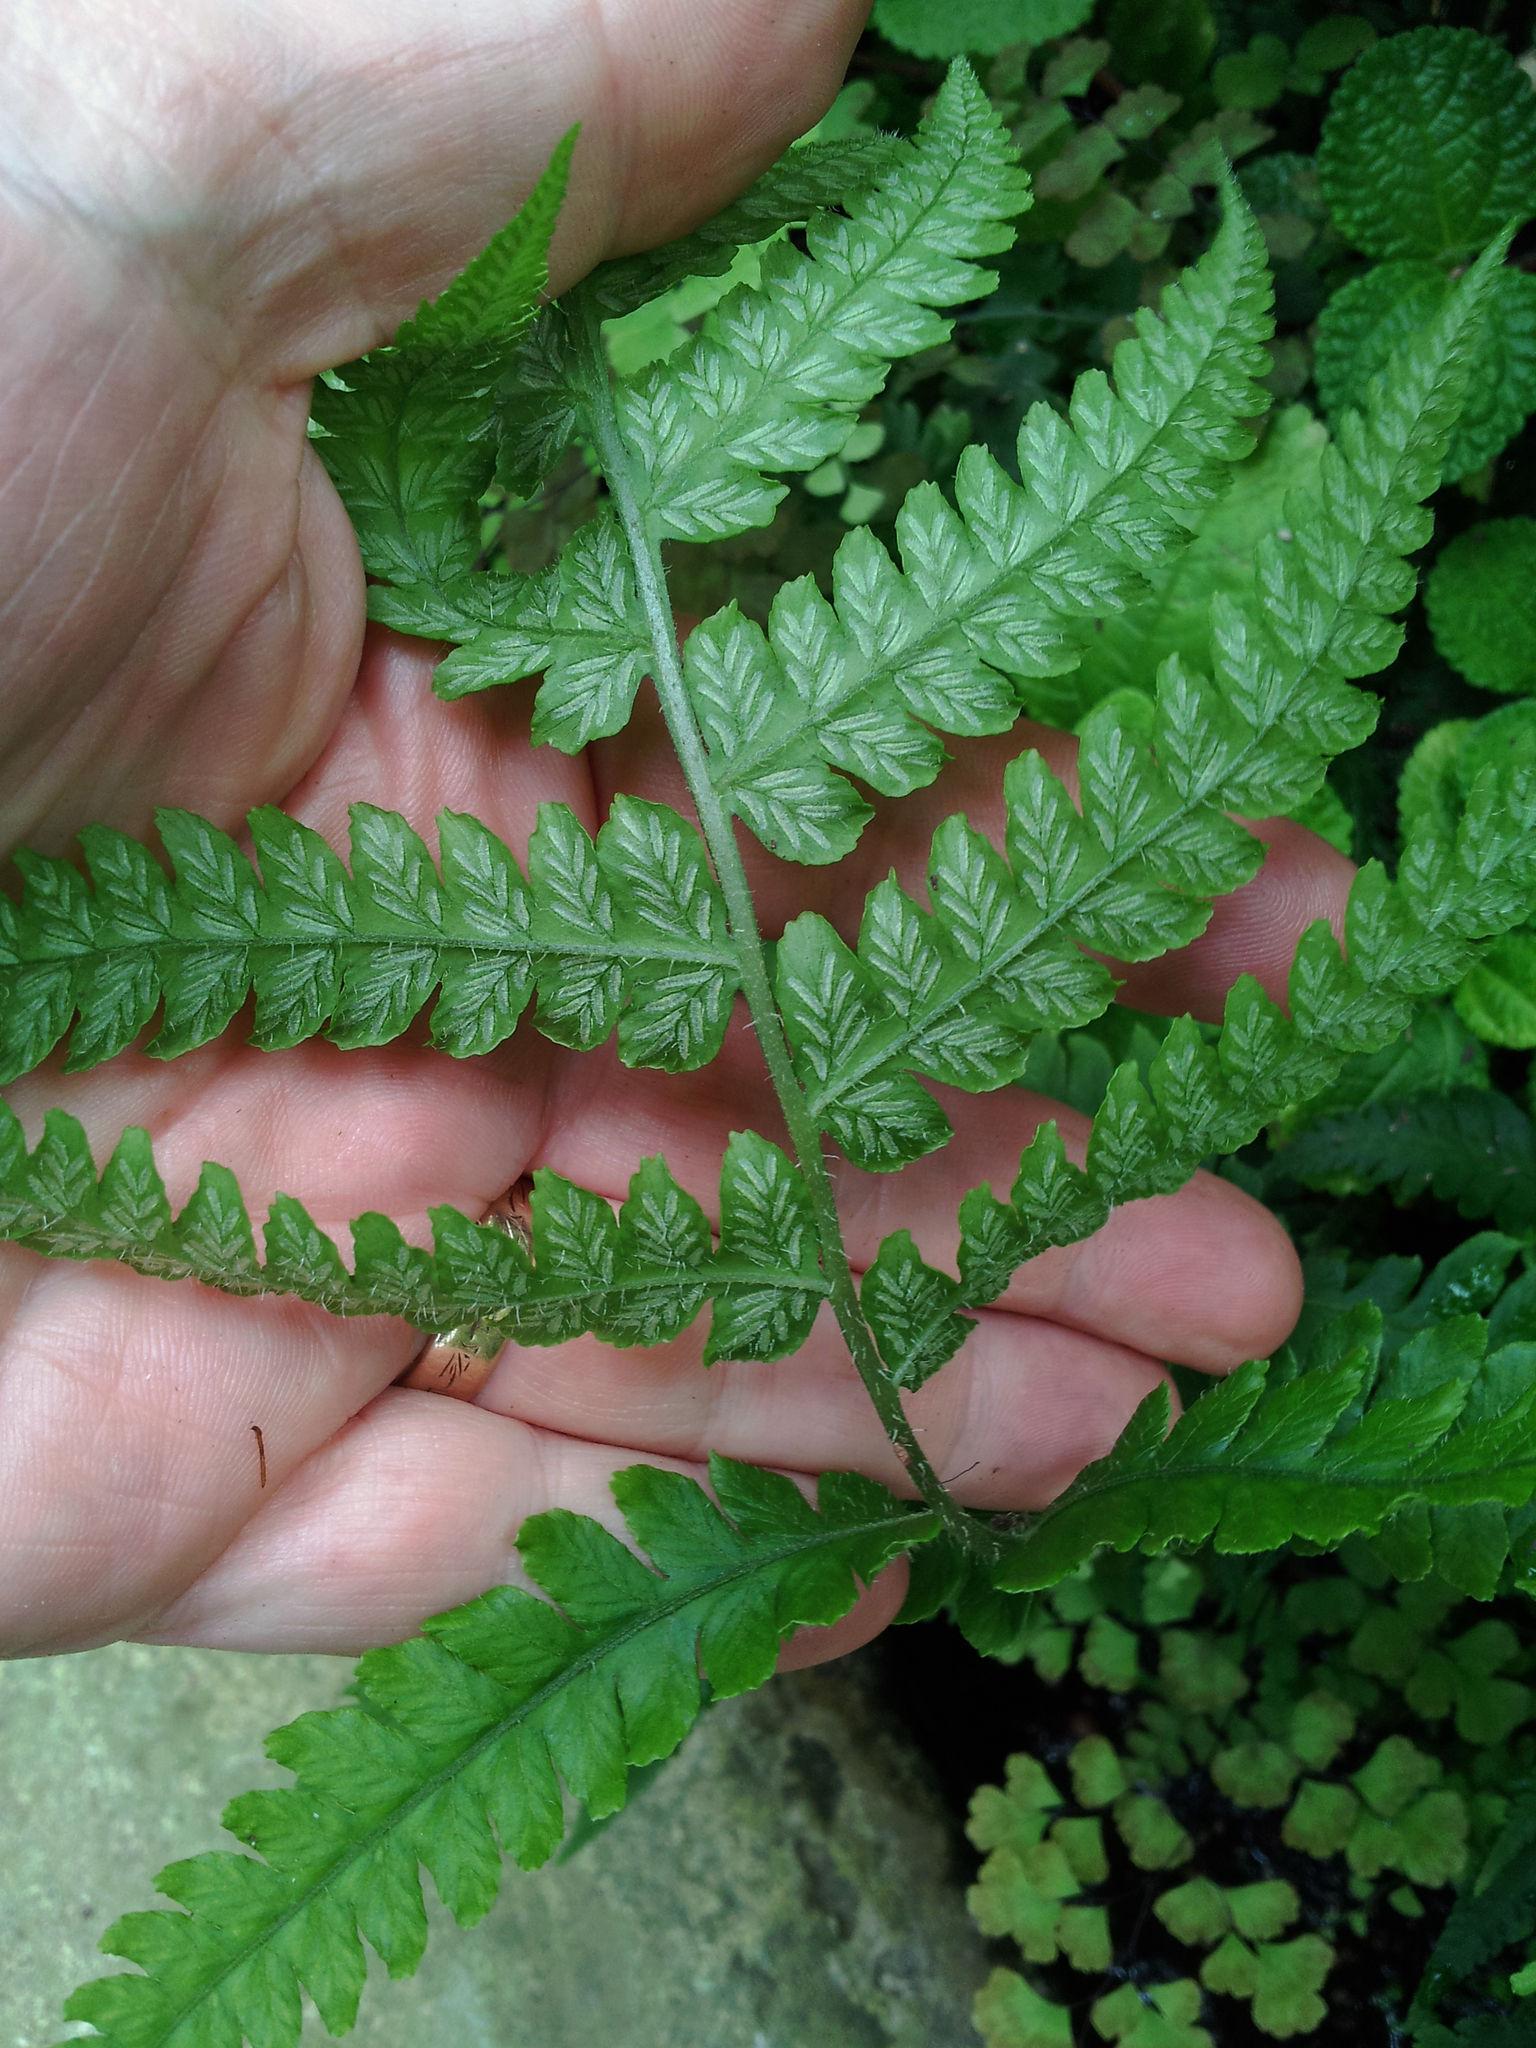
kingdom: Plantae
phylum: Tracheophyta
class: Polypodiopsida
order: Polypodiales
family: Athyriaceae
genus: Deparia
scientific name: Deparia petersenii
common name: Japanese false spleenwort
